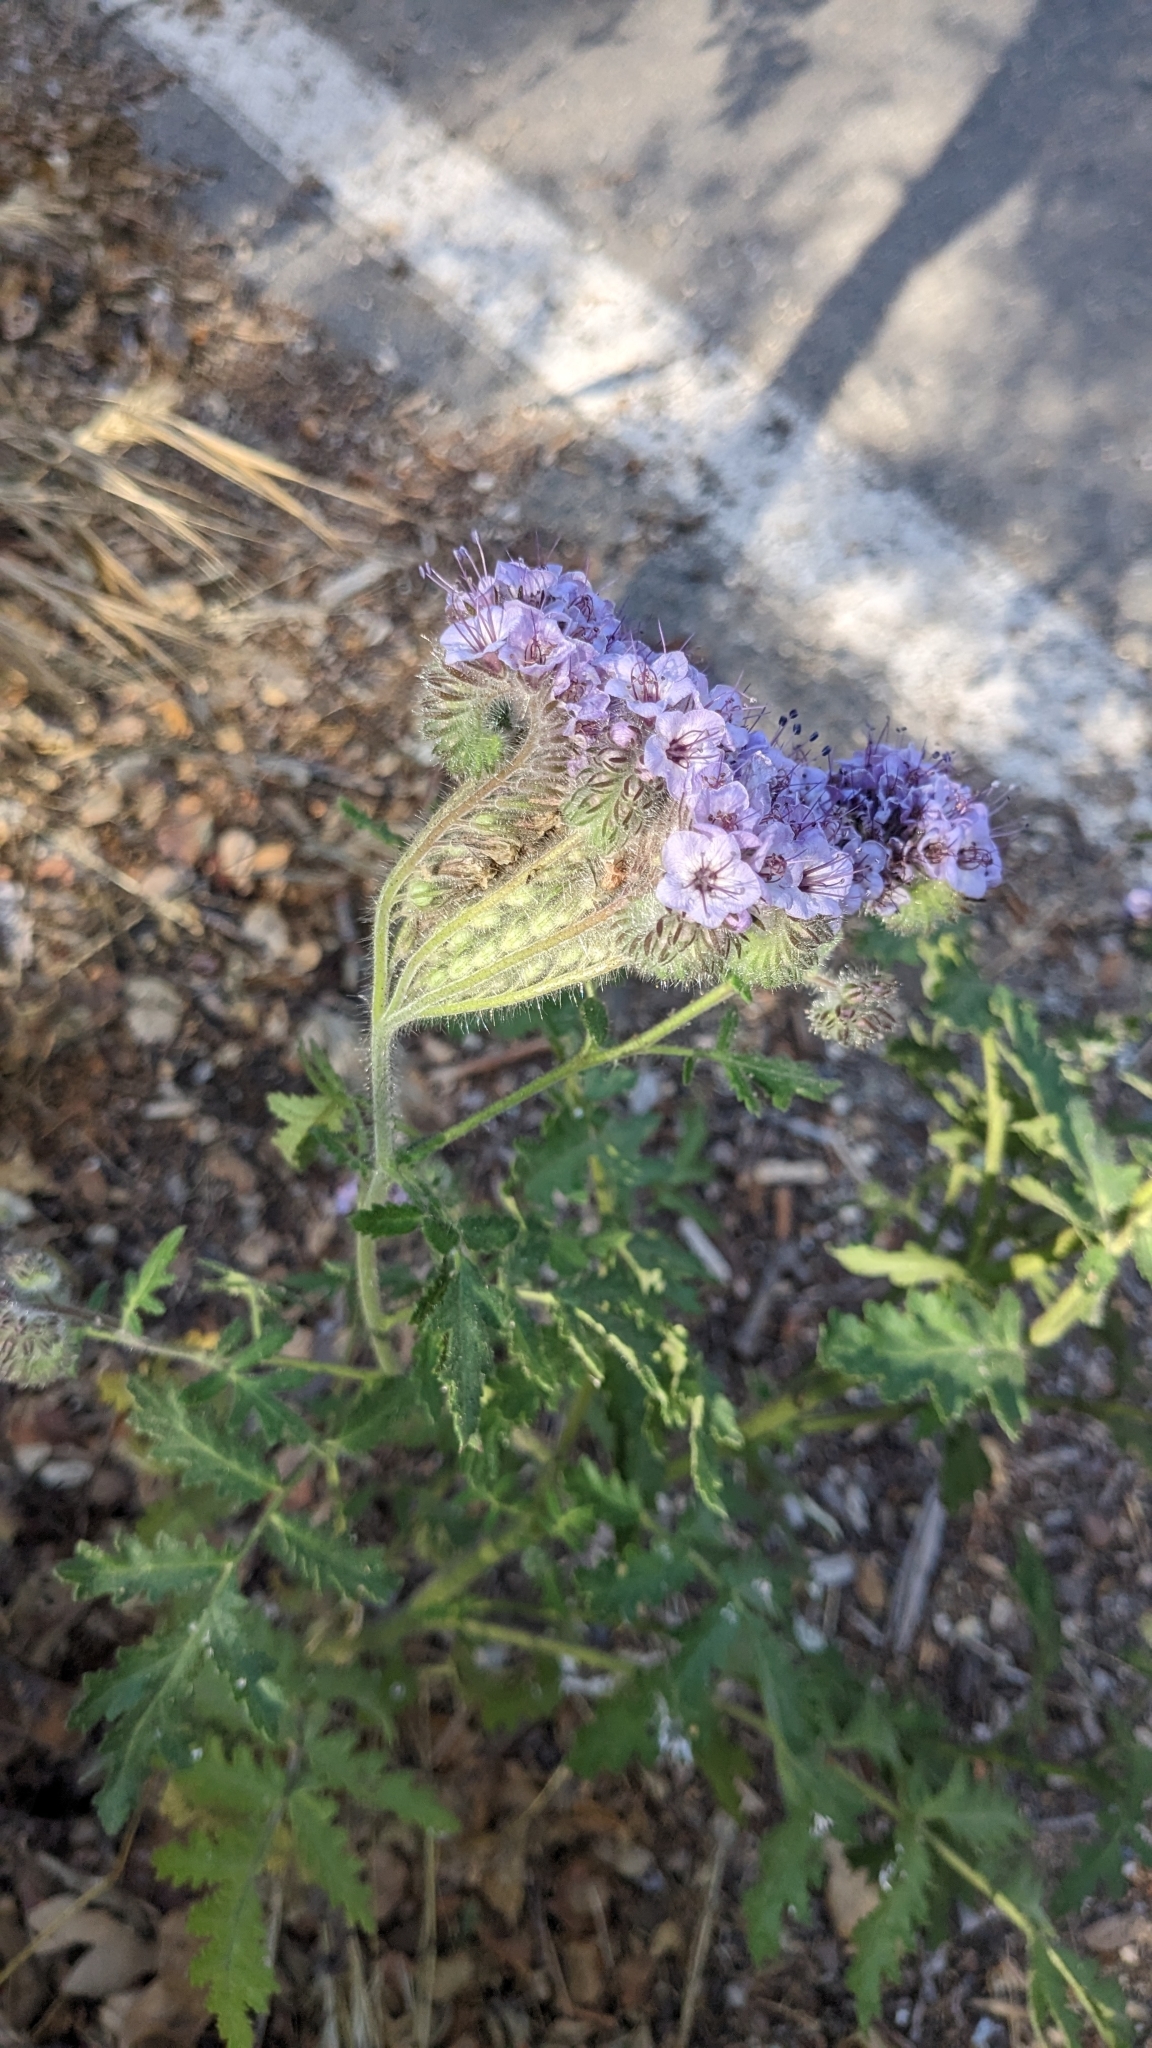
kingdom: Plantae
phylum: Tracheophyta
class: Magnoliopsida
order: Boraginales
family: Hydrophyllaceae
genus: Phacelia
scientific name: Phacelia hubbyi
